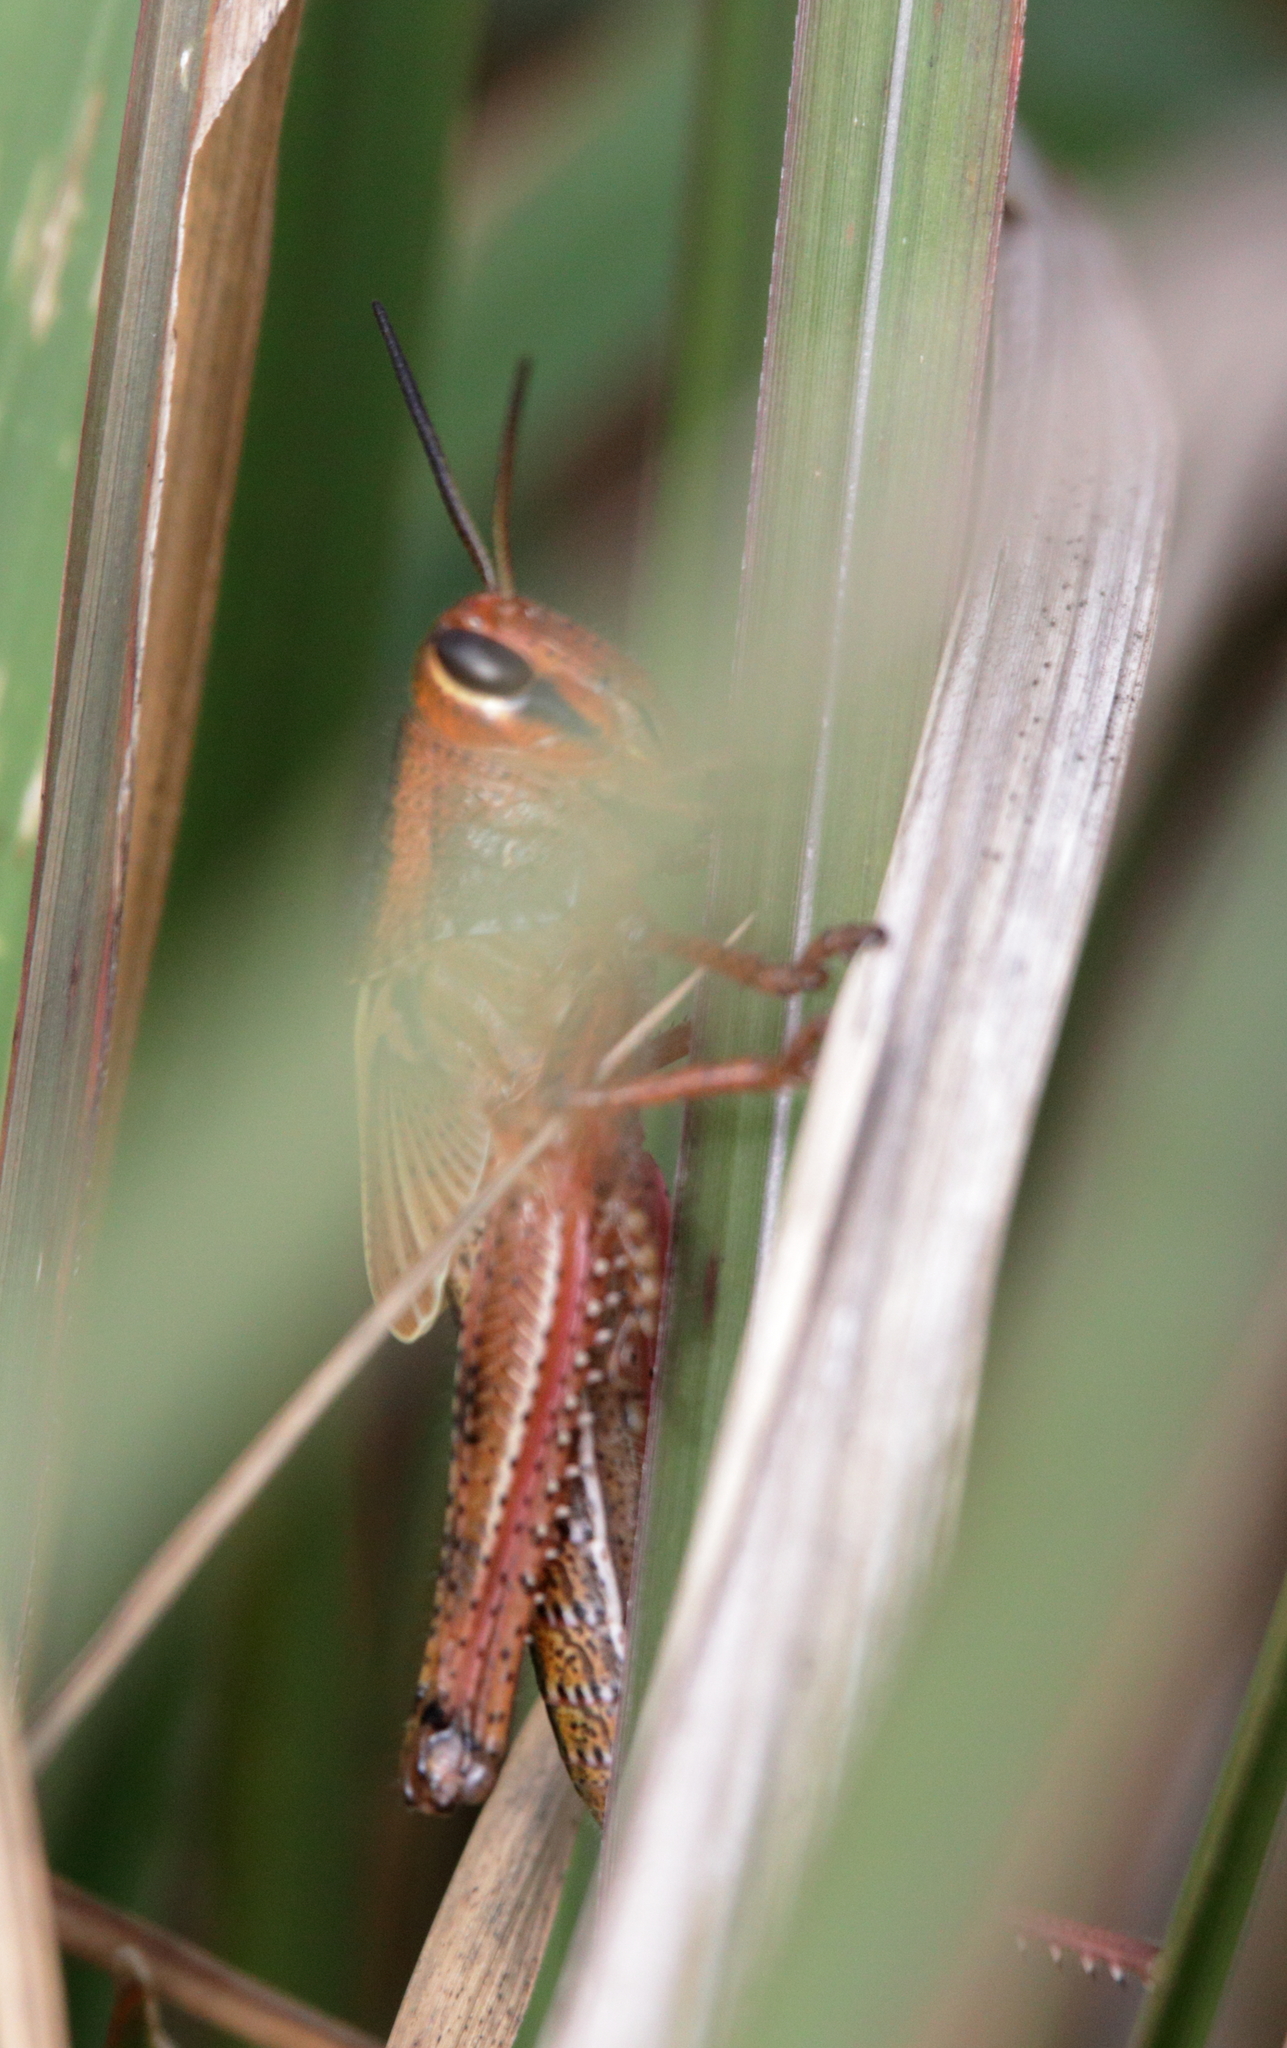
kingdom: Animalia
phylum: Arthropoda
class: Insecta
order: Orthoptera
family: Acrididae
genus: Schistocerca
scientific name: Schistocerca americana
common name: American bird locust
